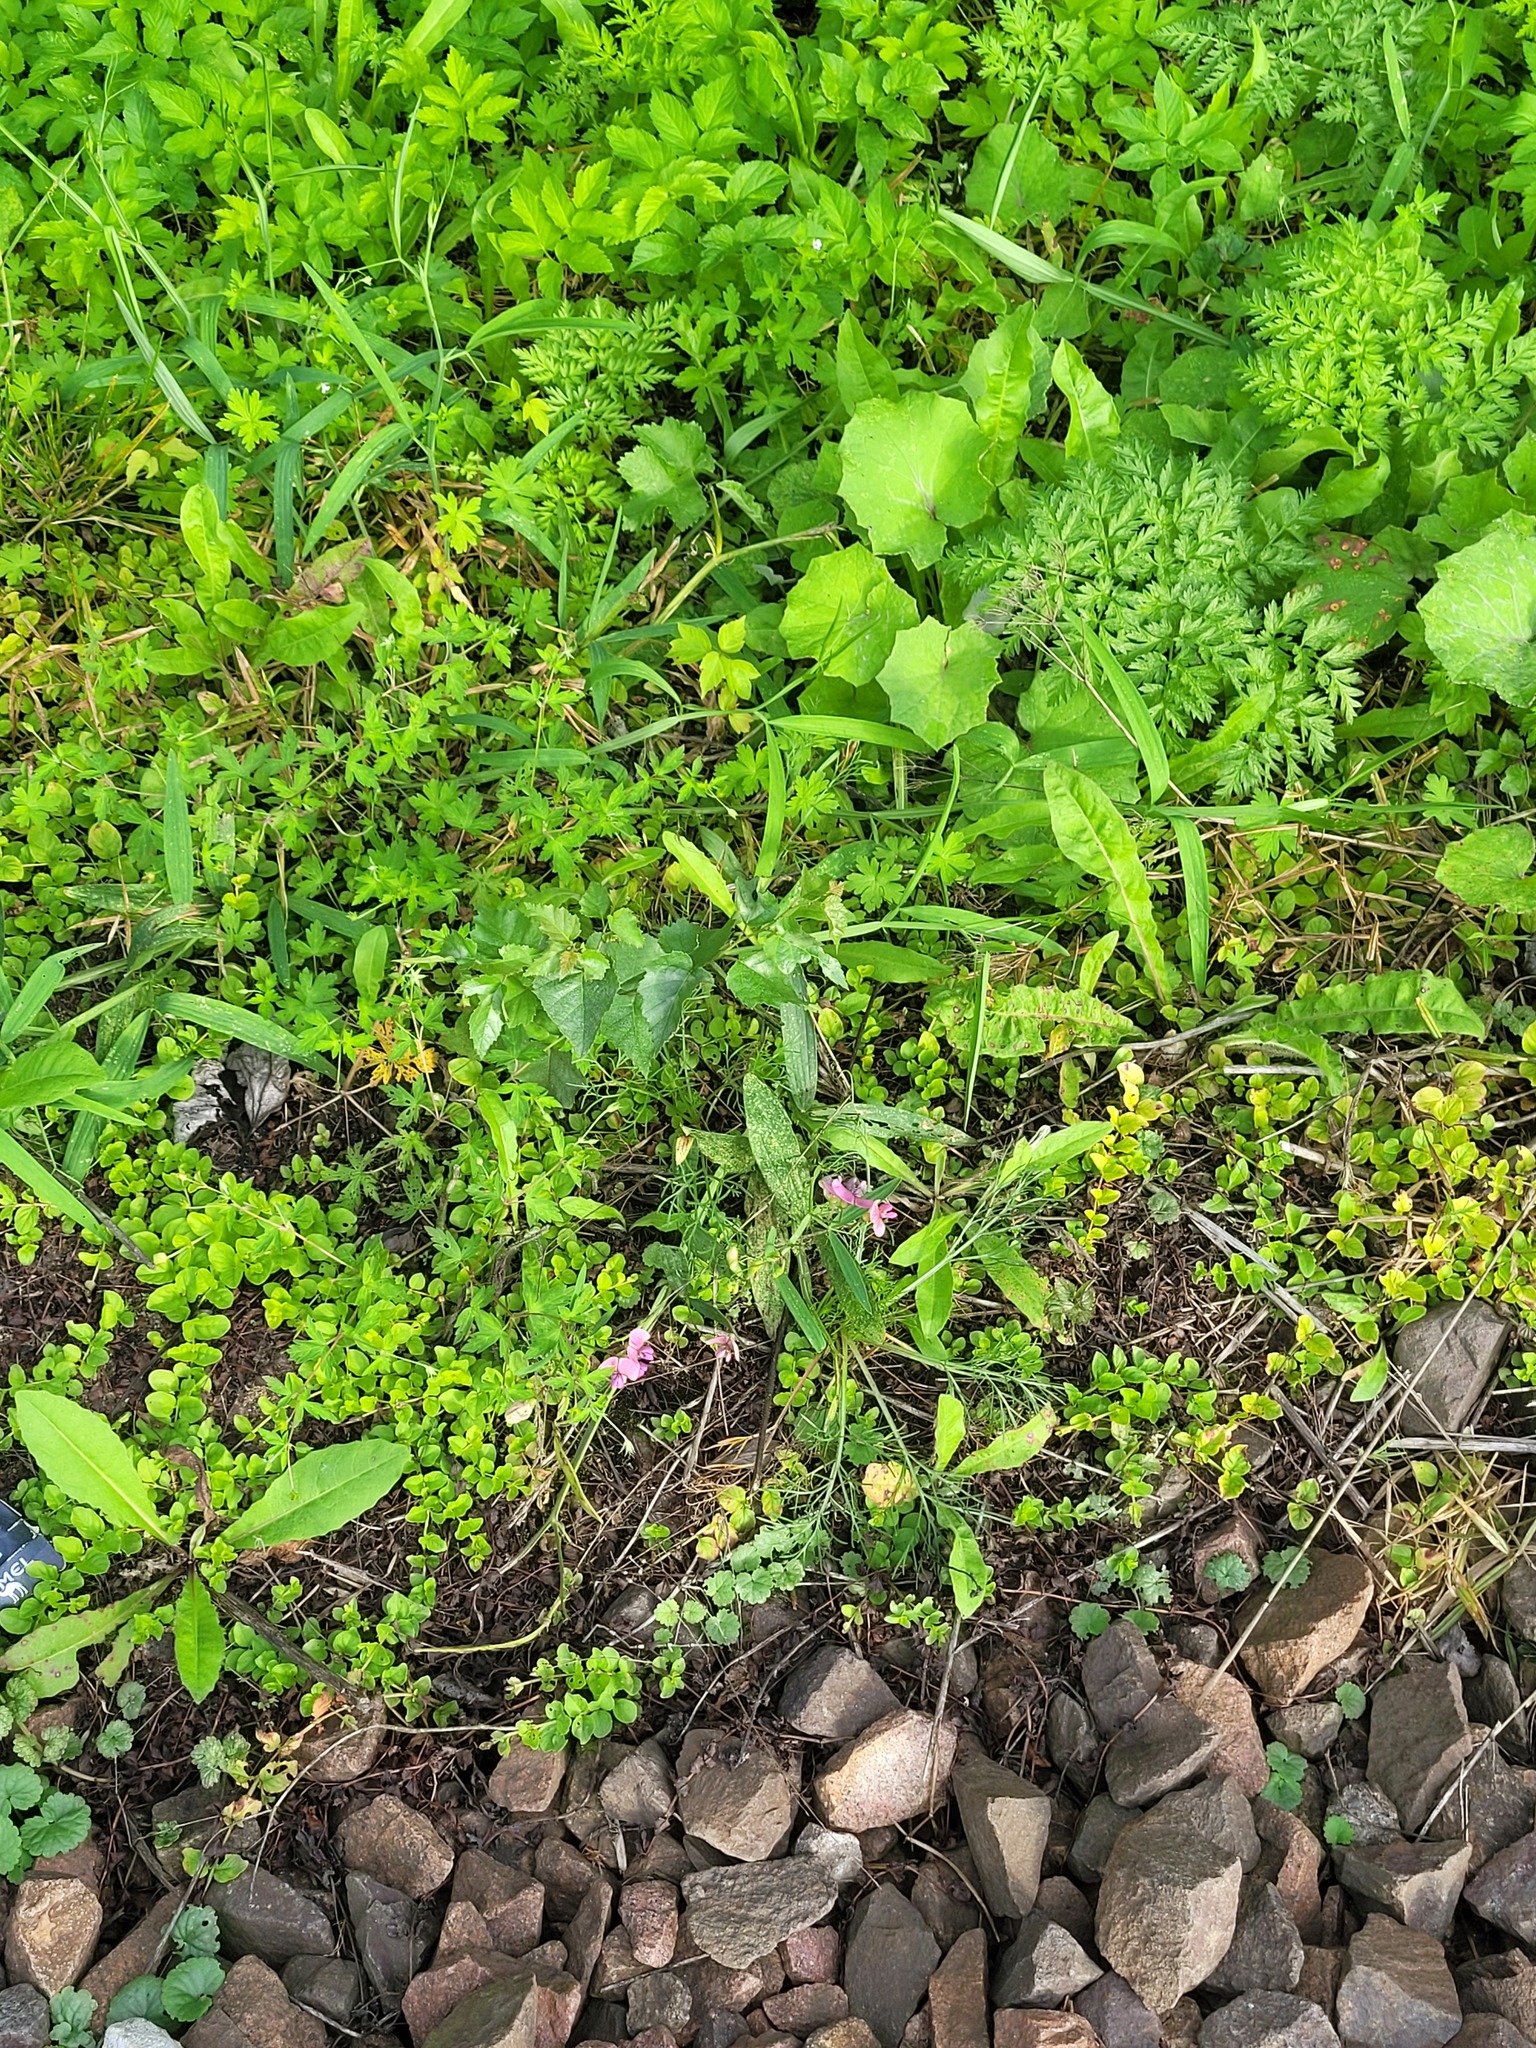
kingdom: Plantae
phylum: Tracheophyta
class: Magnoliopsida
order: Fabales
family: Fabaceae
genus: Lathyrus
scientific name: Lathyrus sylvestris
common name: Flat pea
